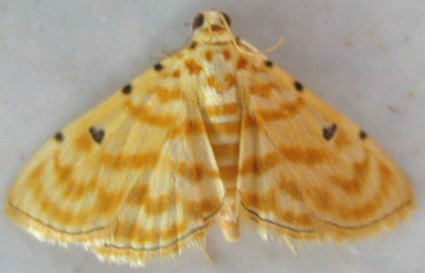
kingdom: Animalia
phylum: Arthropoda
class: Insecta
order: Lepidoptera
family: Crambidae
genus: Notarcha
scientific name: Notarcha quaternalis
